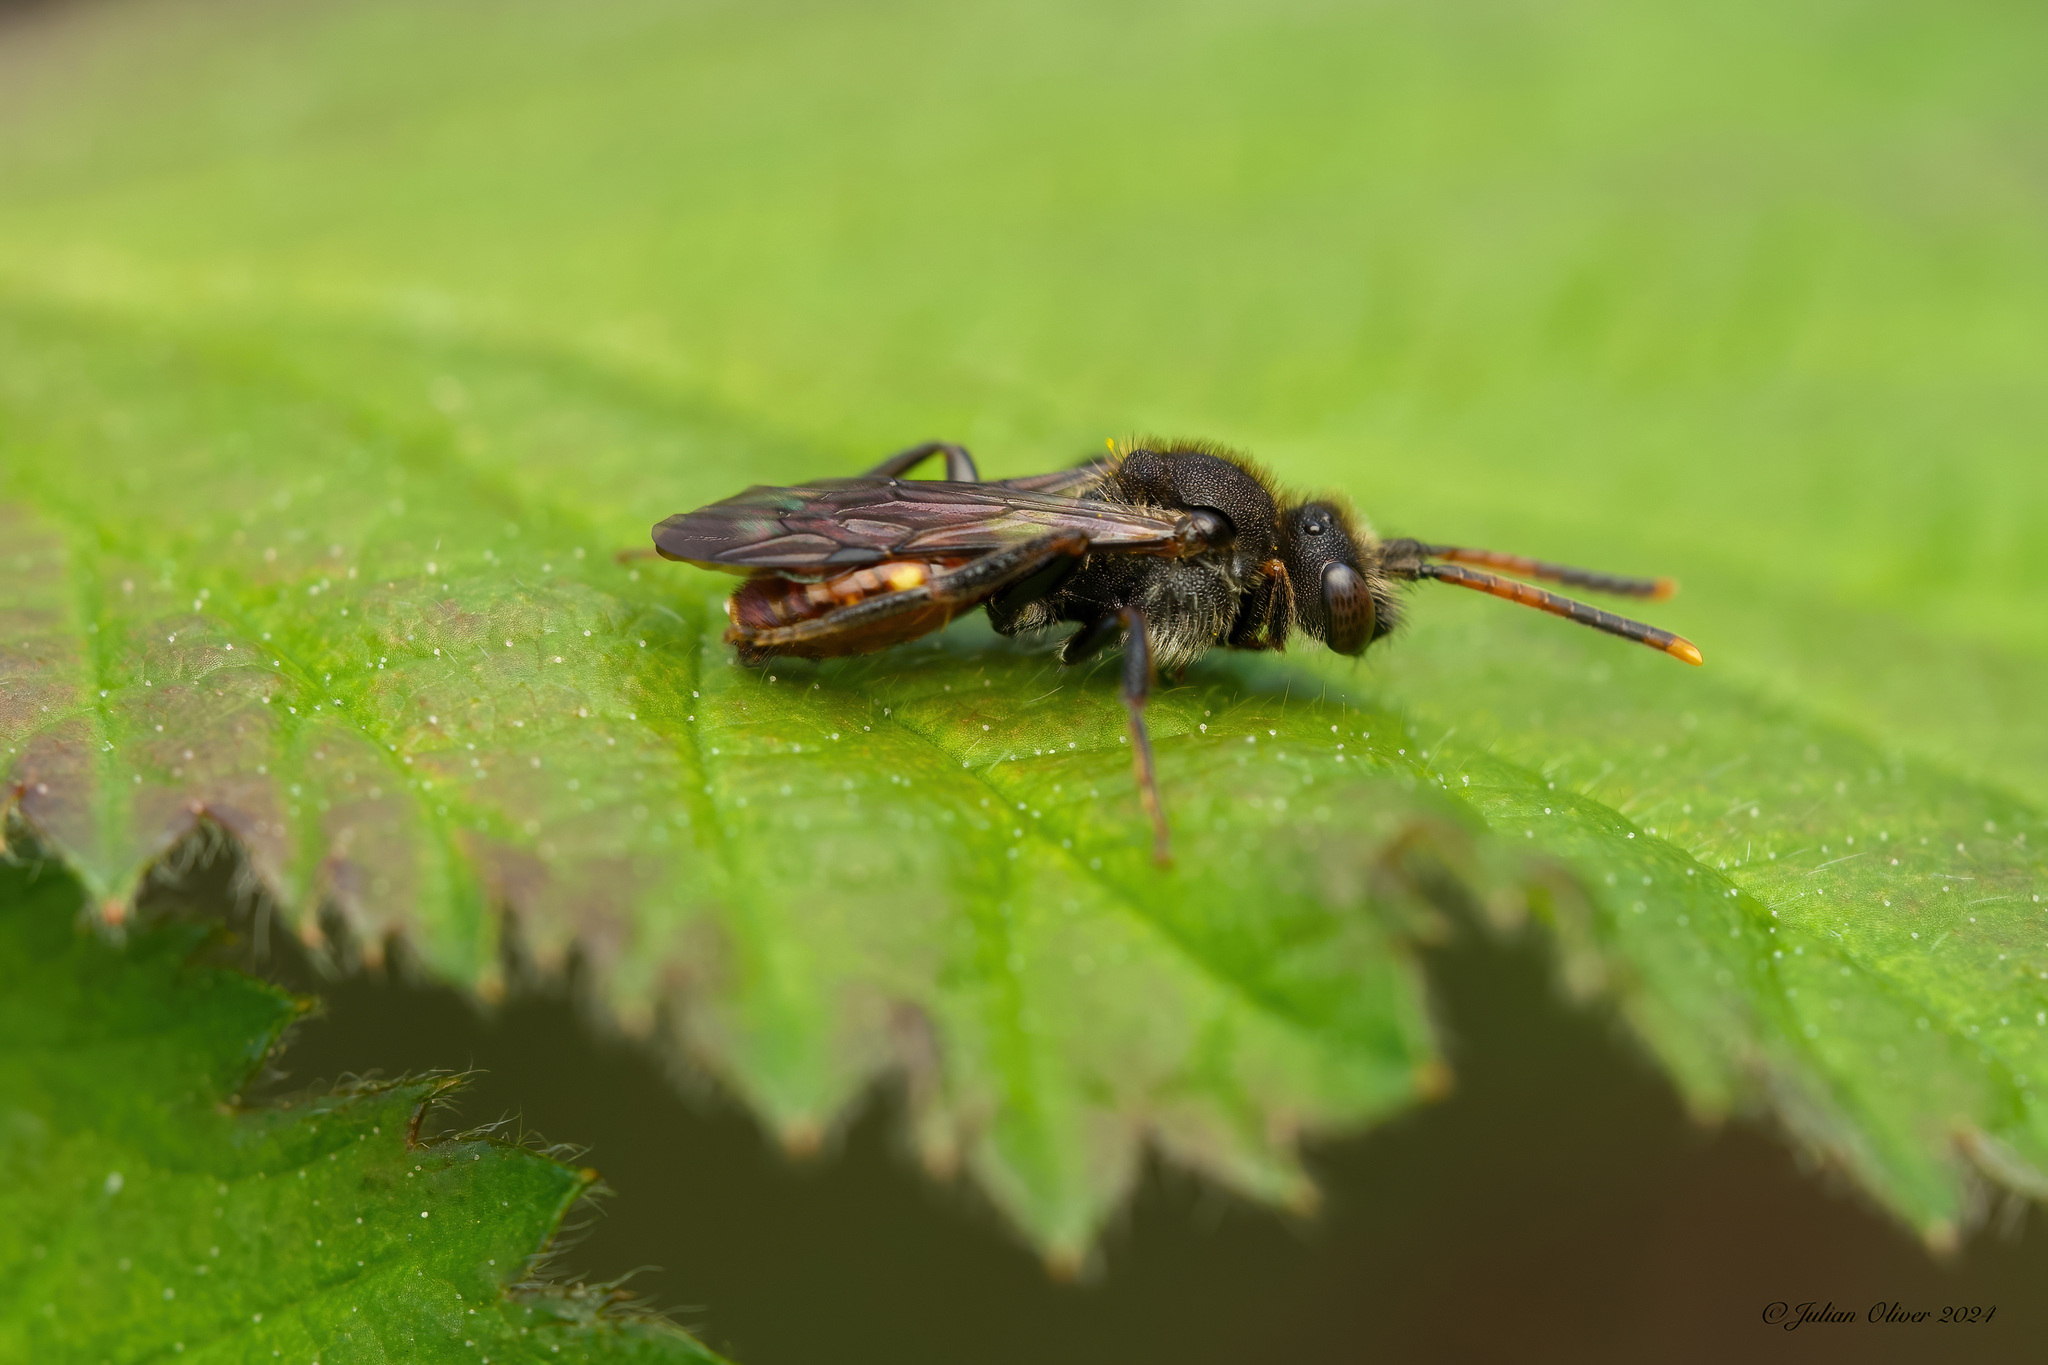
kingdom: Animalia
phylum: Arthropoda
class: Insecta
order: Hymenoptera
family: Apidae
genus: Nomada
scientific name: Nomada fabriciana
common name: Fabricius' nomad bee
